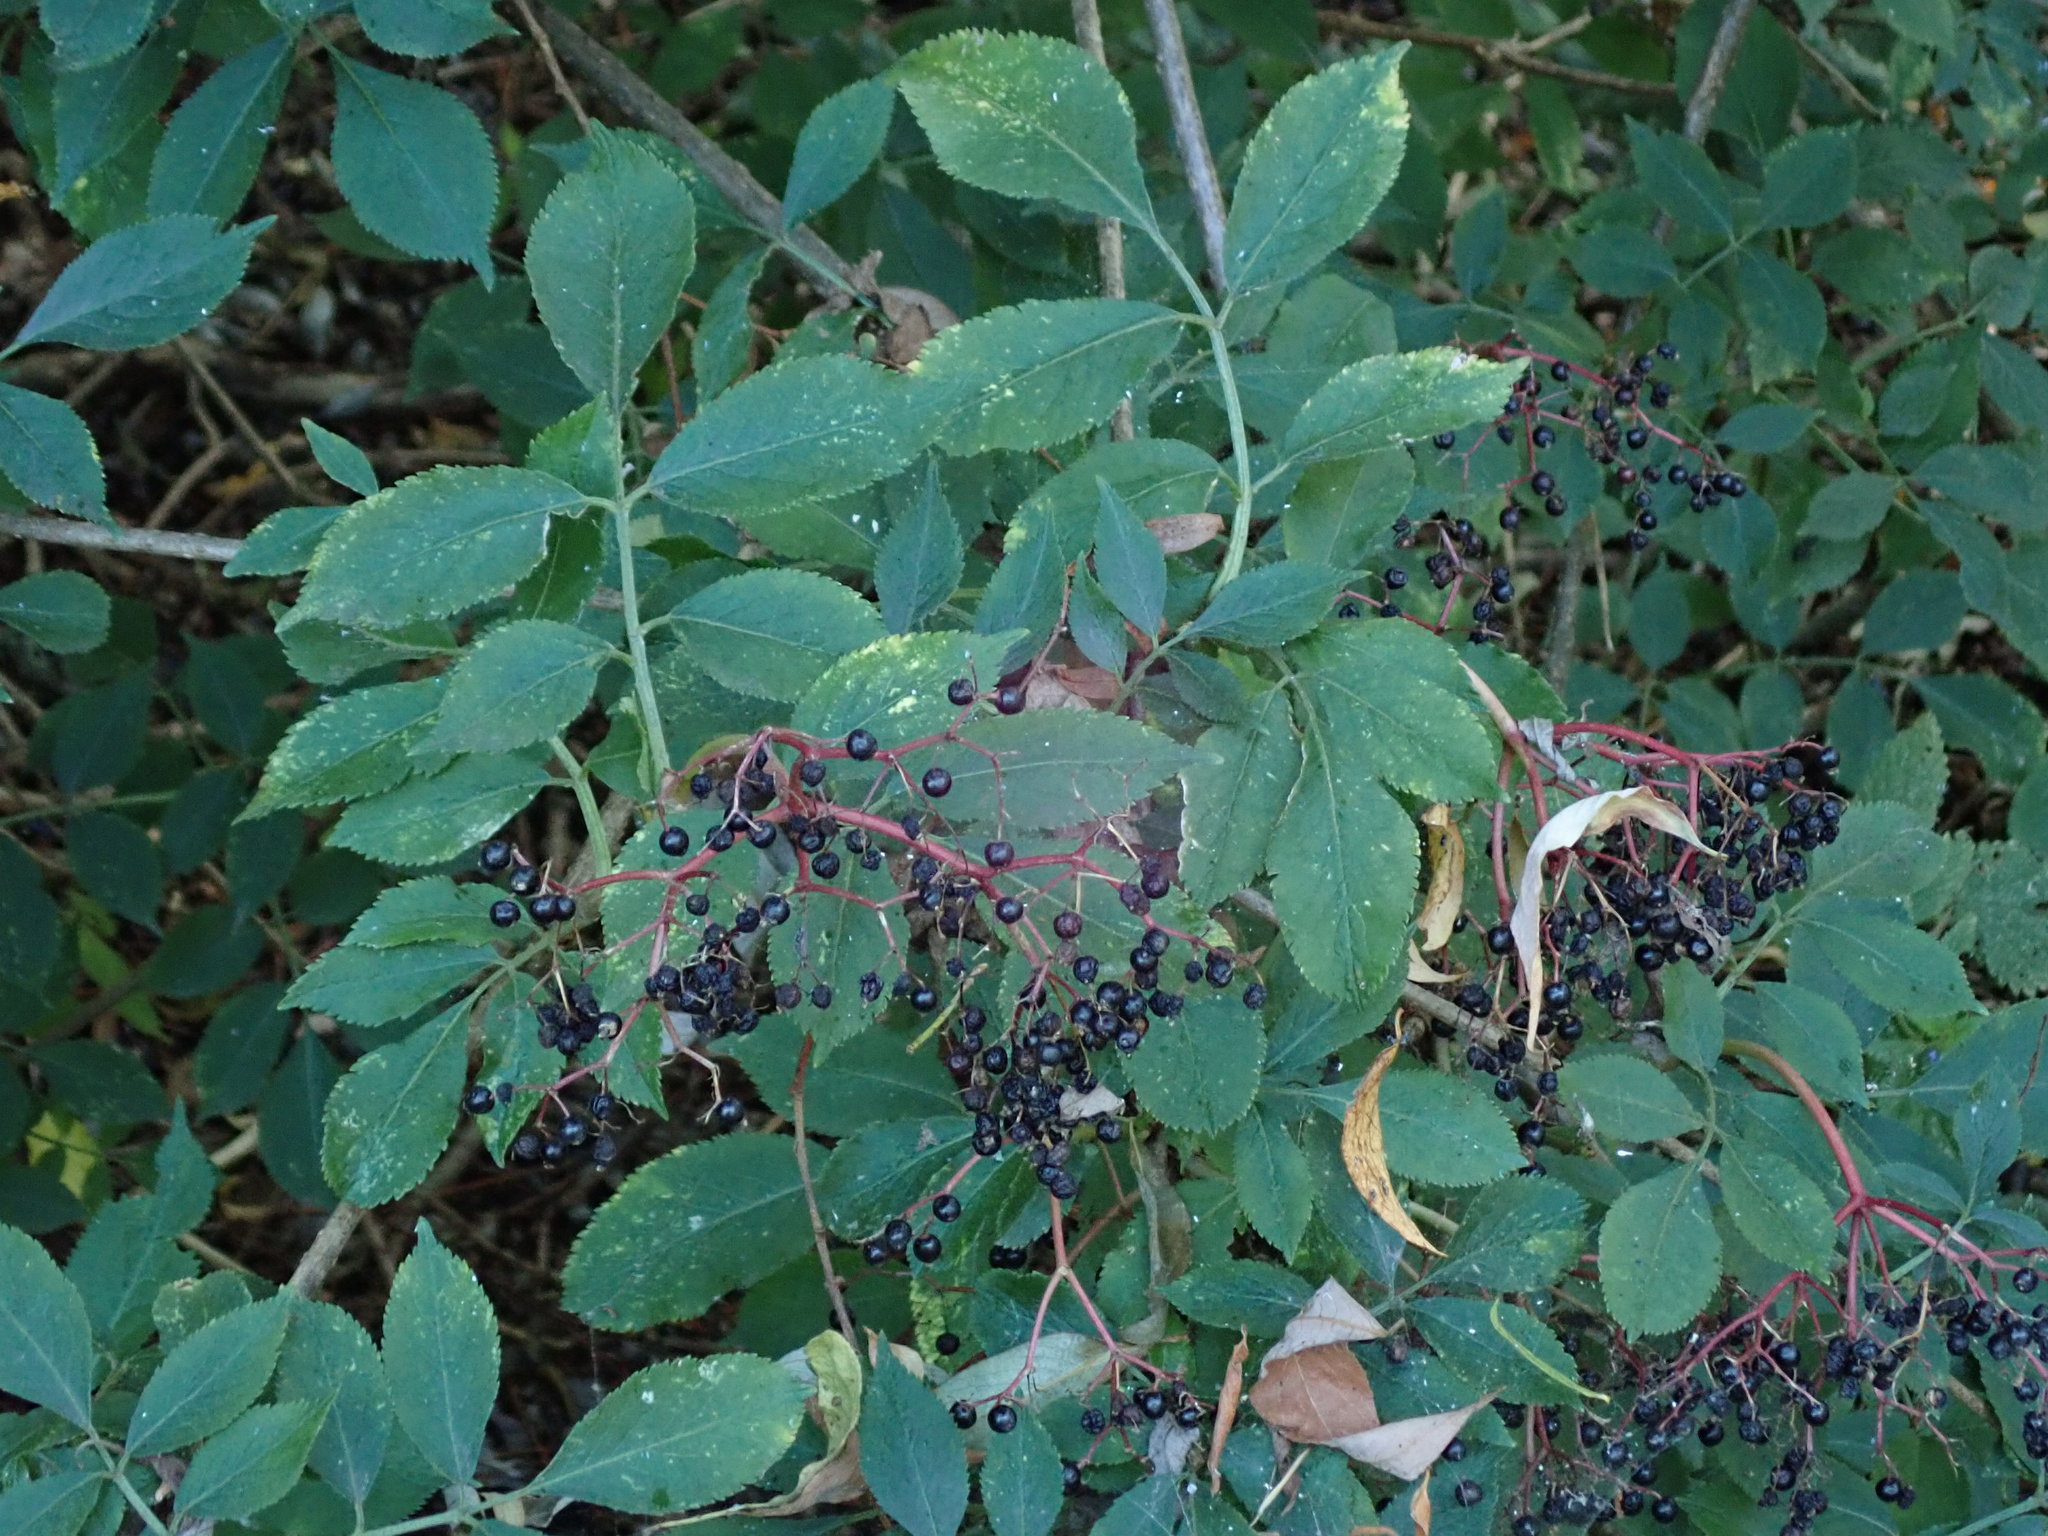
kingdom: Plantae
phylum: Tracheophyta
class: Magnoliopsida
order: Dipsacales
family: Viburnaceae
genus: Sambucus
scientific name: Sambucus nigra
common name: Elder
